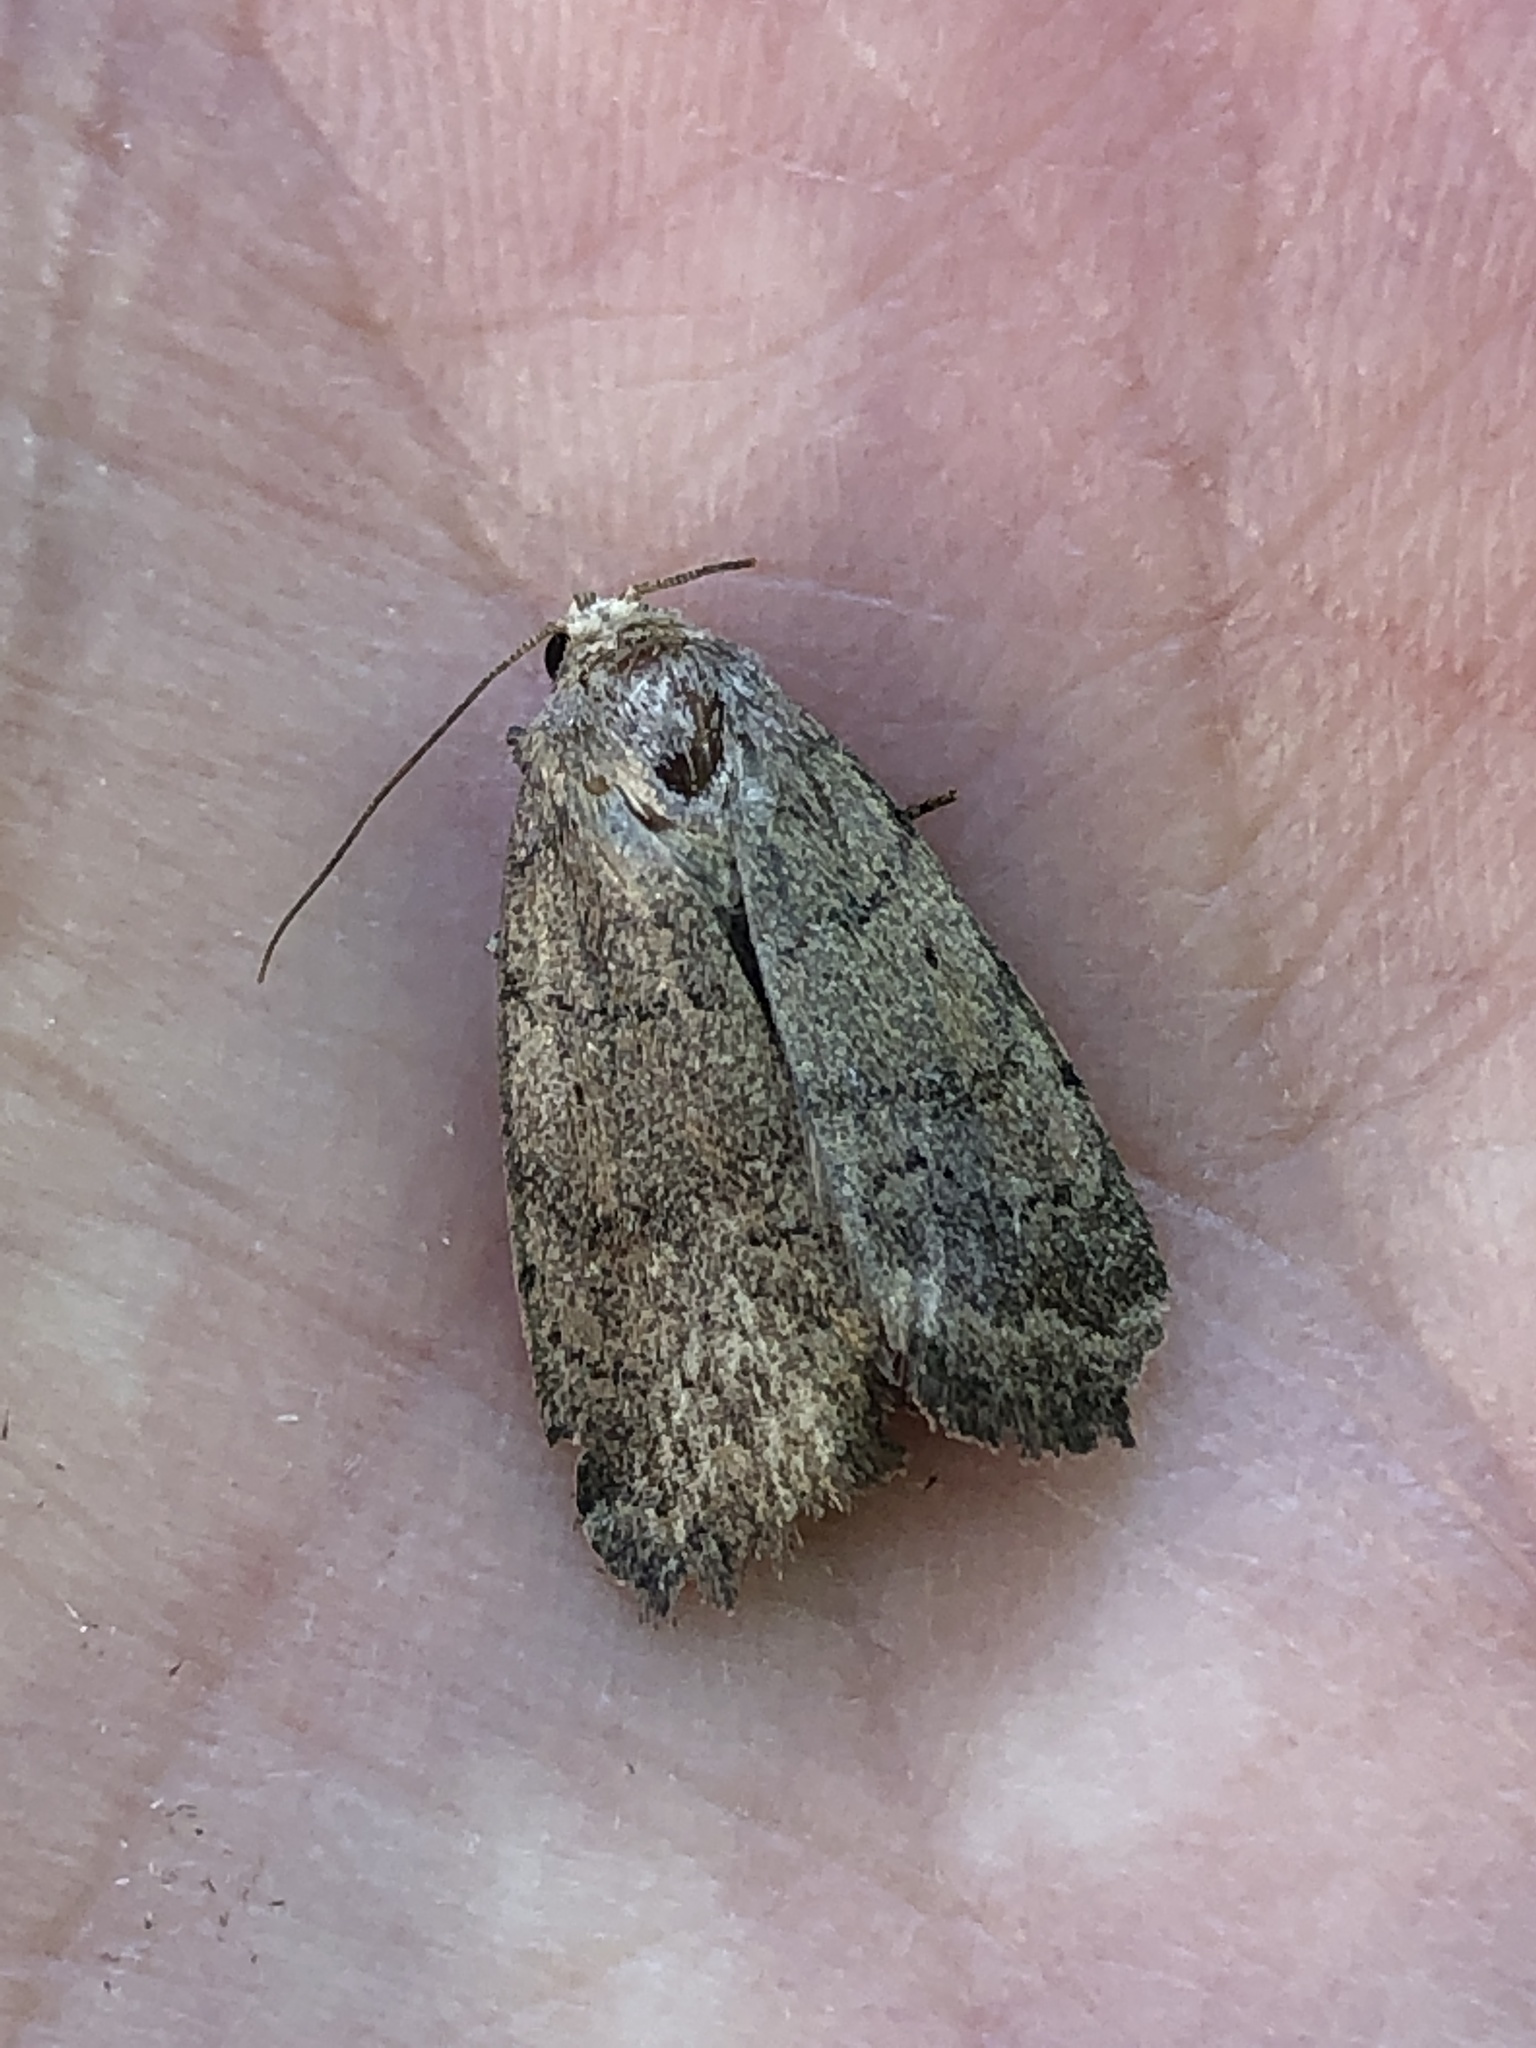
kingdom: Animalia
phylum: Arthropoda
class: Insecta
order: Lepidoptera
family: Noctuidae
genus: Athetis
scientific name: Athetis tarda
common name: Slowpoke moth
